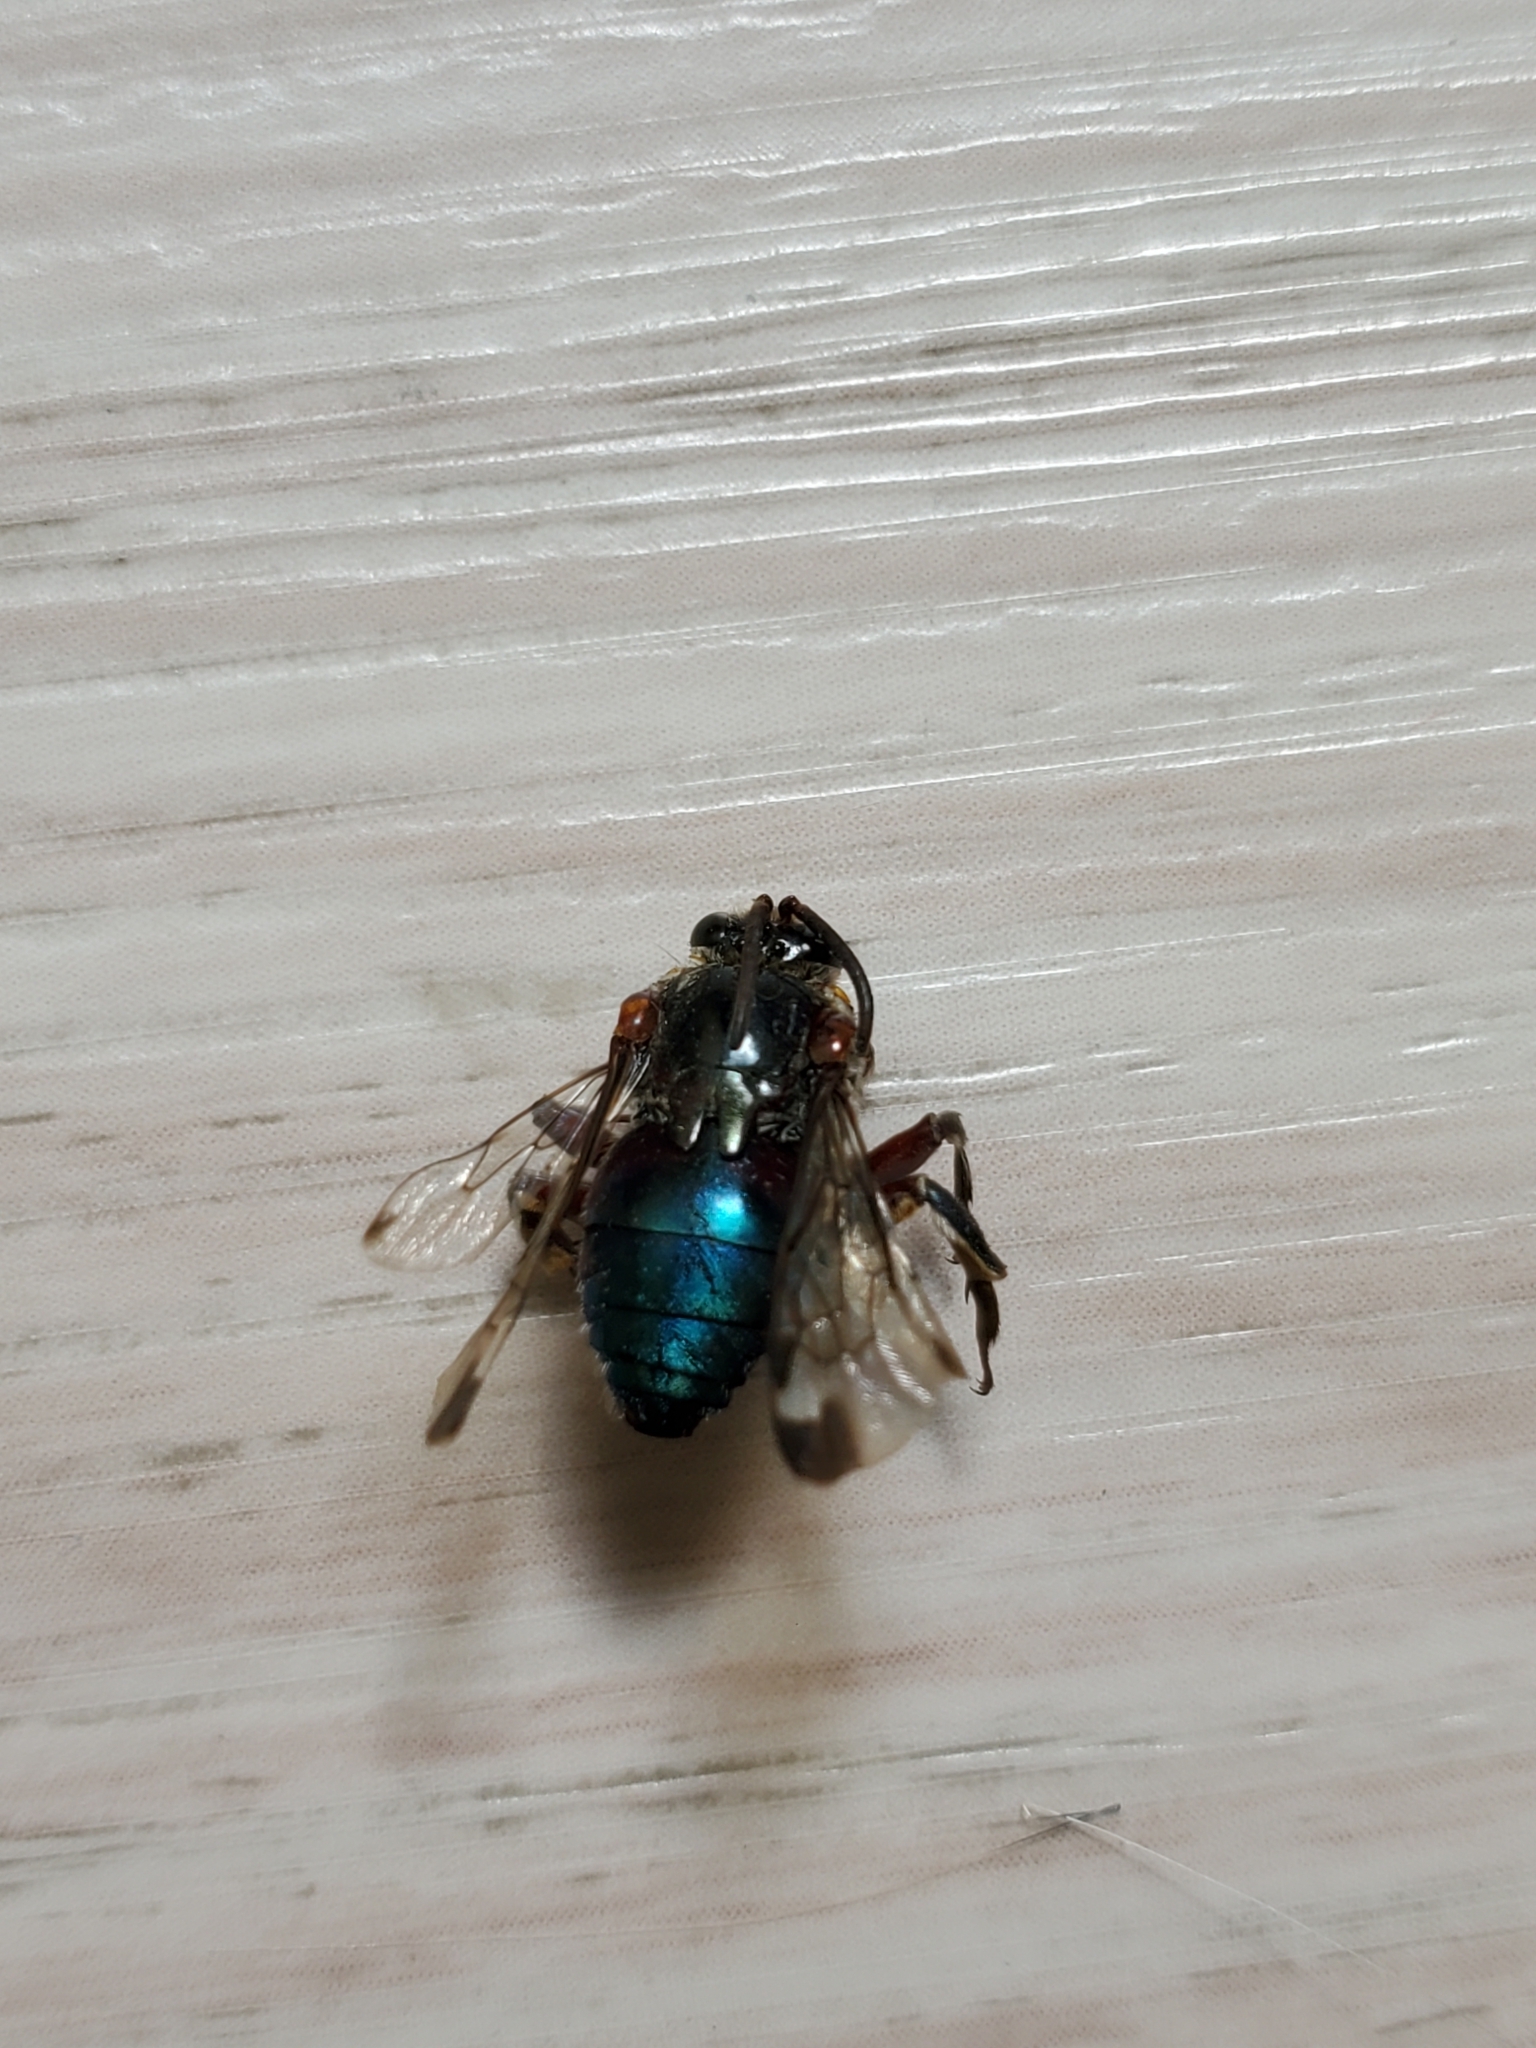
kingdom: Animalia
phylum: Arthropoda
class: Insecta
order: Hymenoptera
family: Apidae
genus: Mesocheira
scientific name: Mesocheira bicolor
